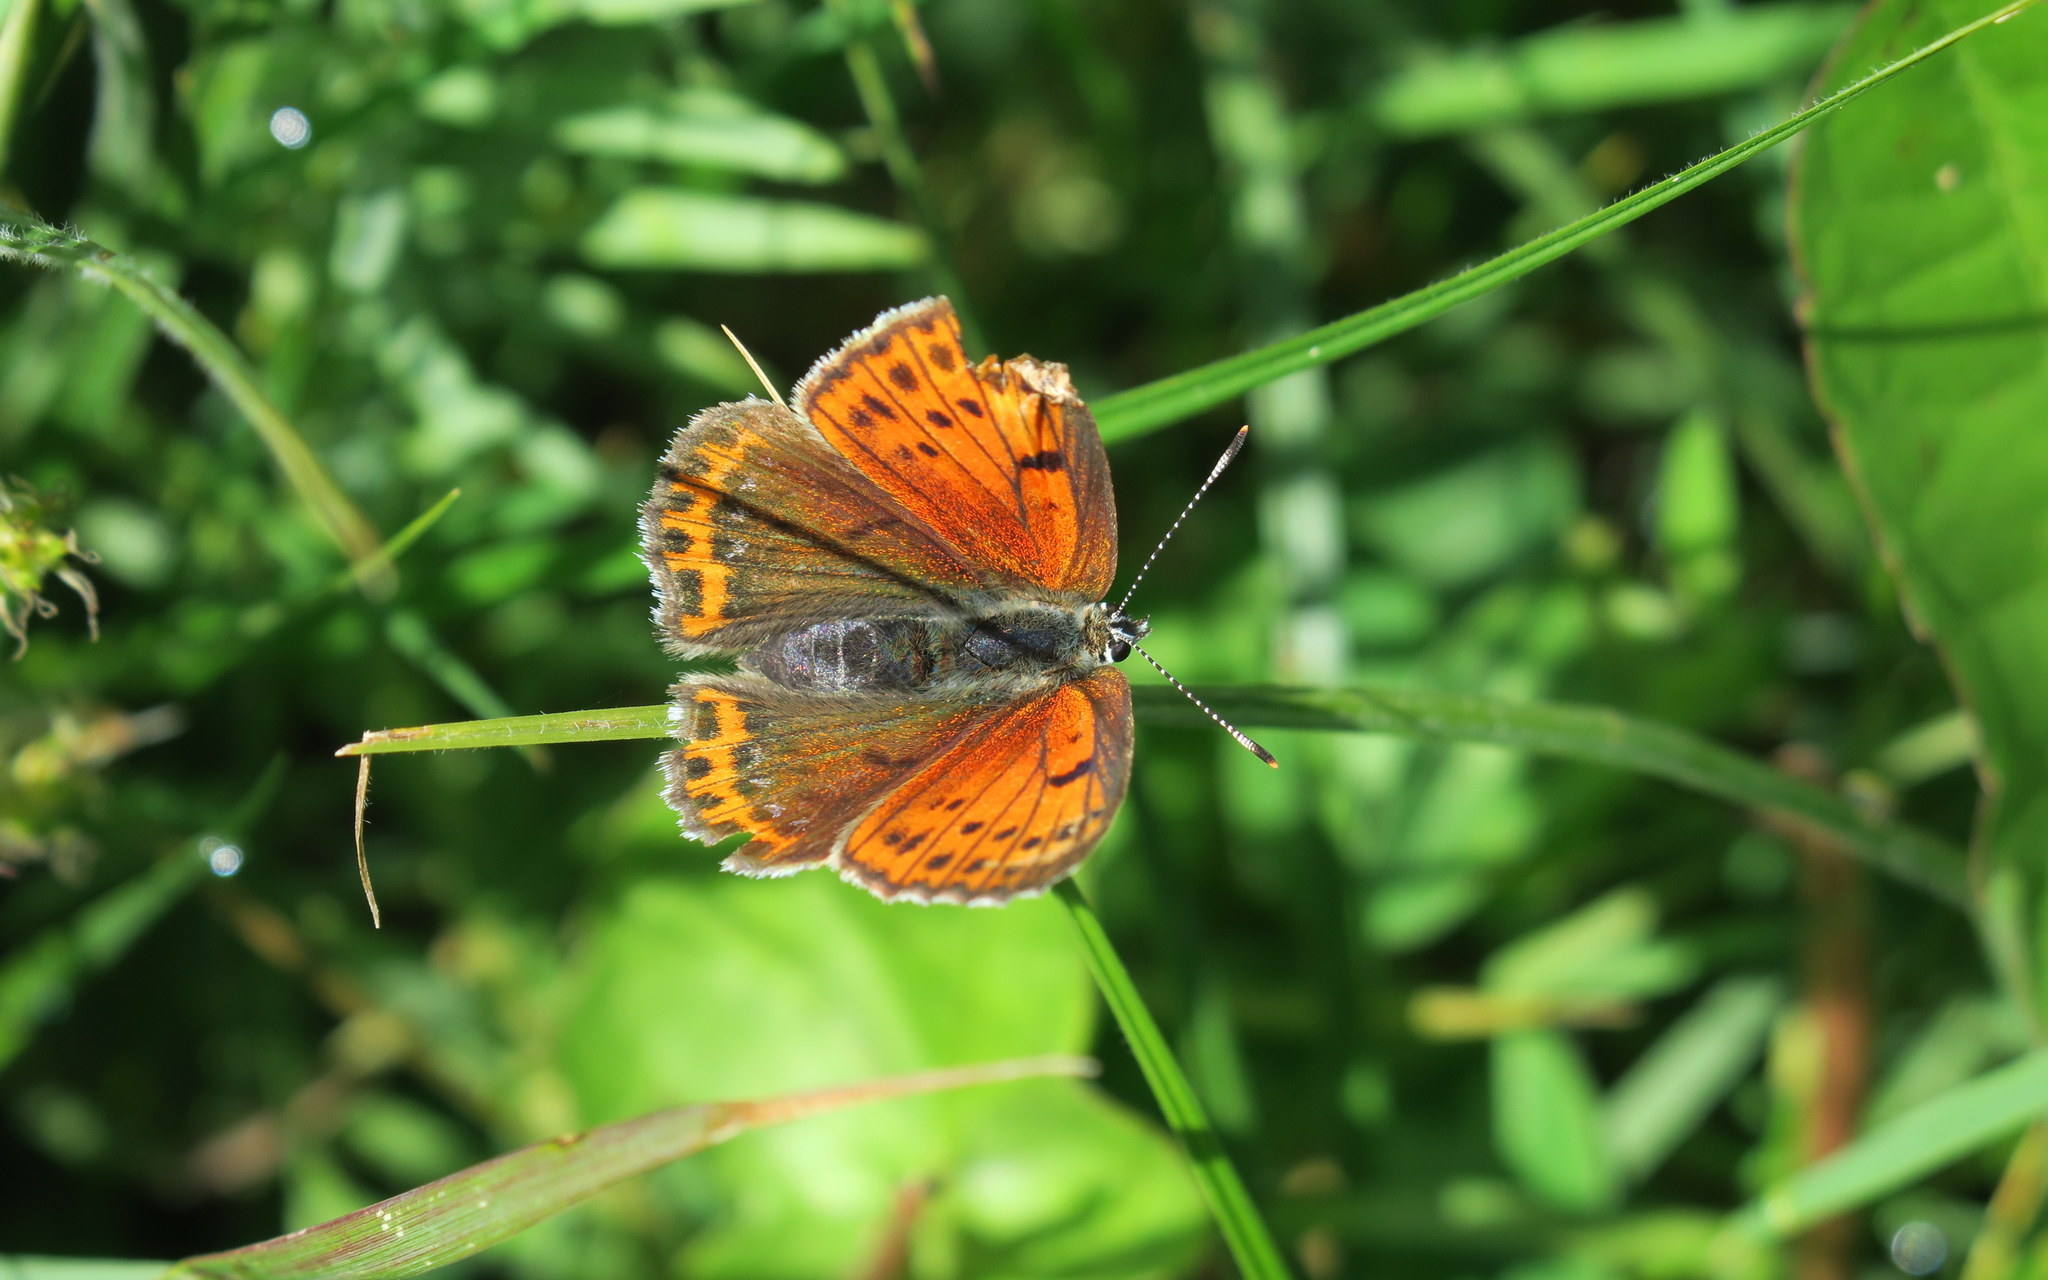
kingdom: Animalia
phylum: Arthropoda
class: Insecta
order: Lepidoptera
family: Lycaenidae
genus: Palaeochrysophanus
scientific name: Palaeochrysophanus candens
